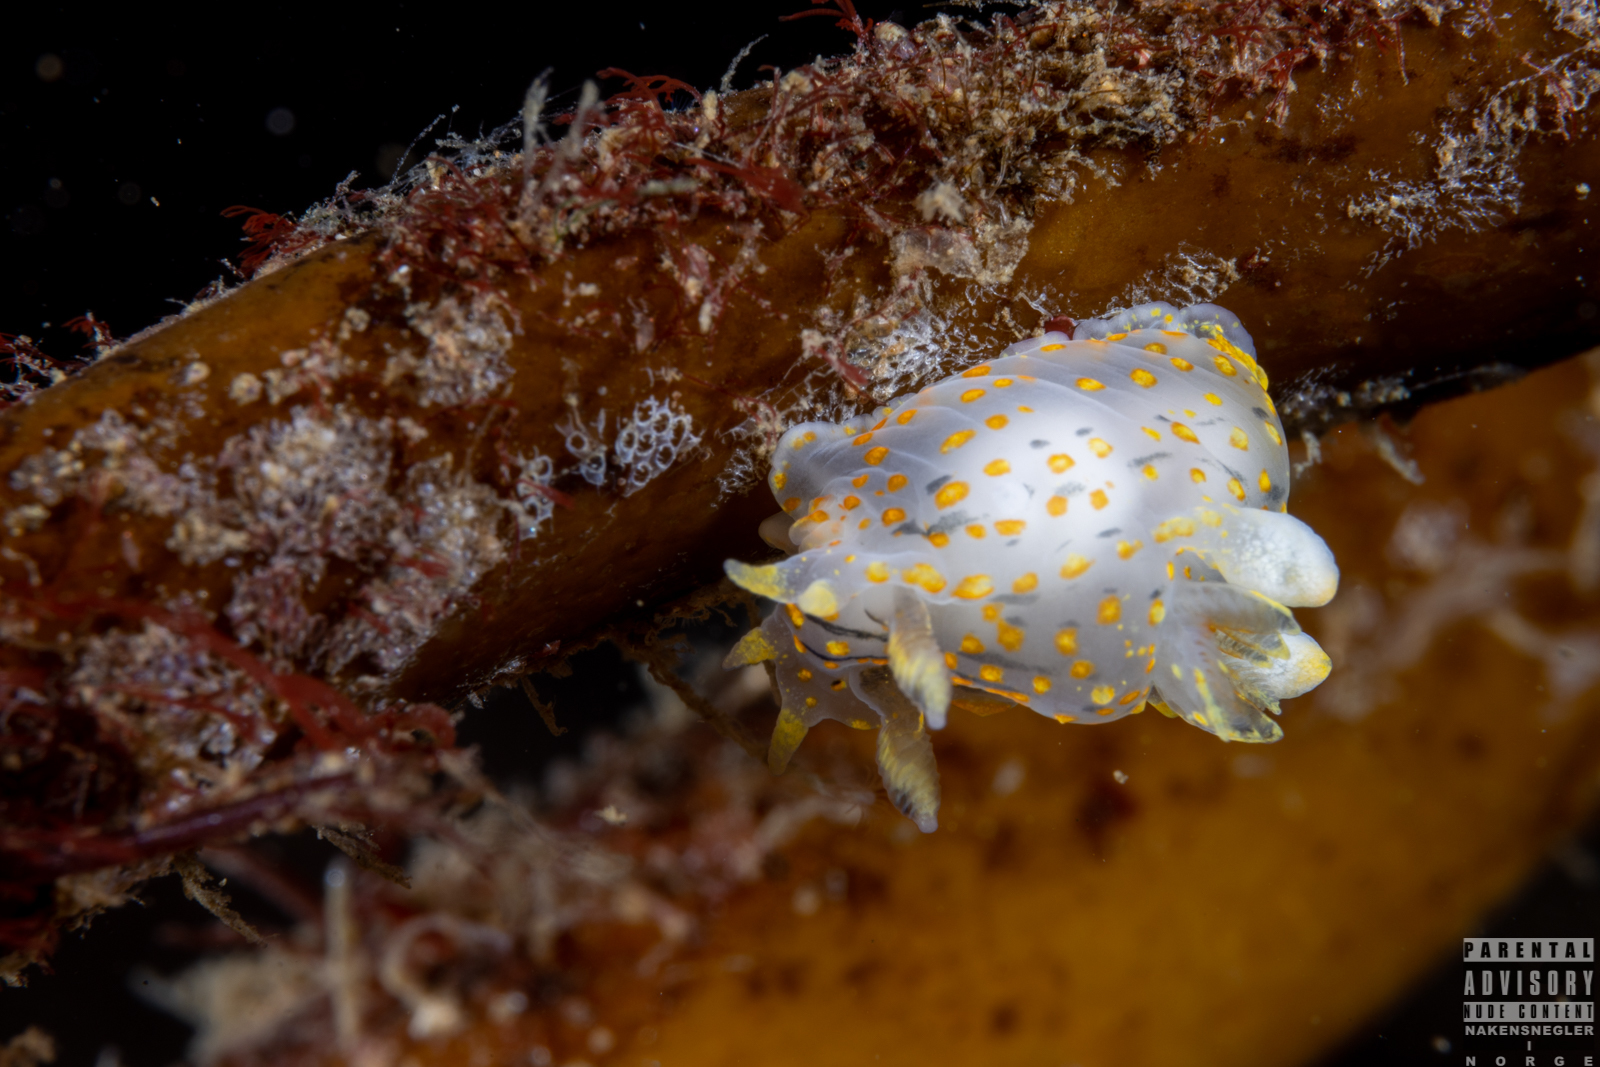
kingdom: Animalia
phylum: Mollusca
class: Gastropoda
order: Nudibranchia
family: Polyceridae
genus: Polycera
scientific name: Polycera quadrilineata
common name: Four-striped polycera
